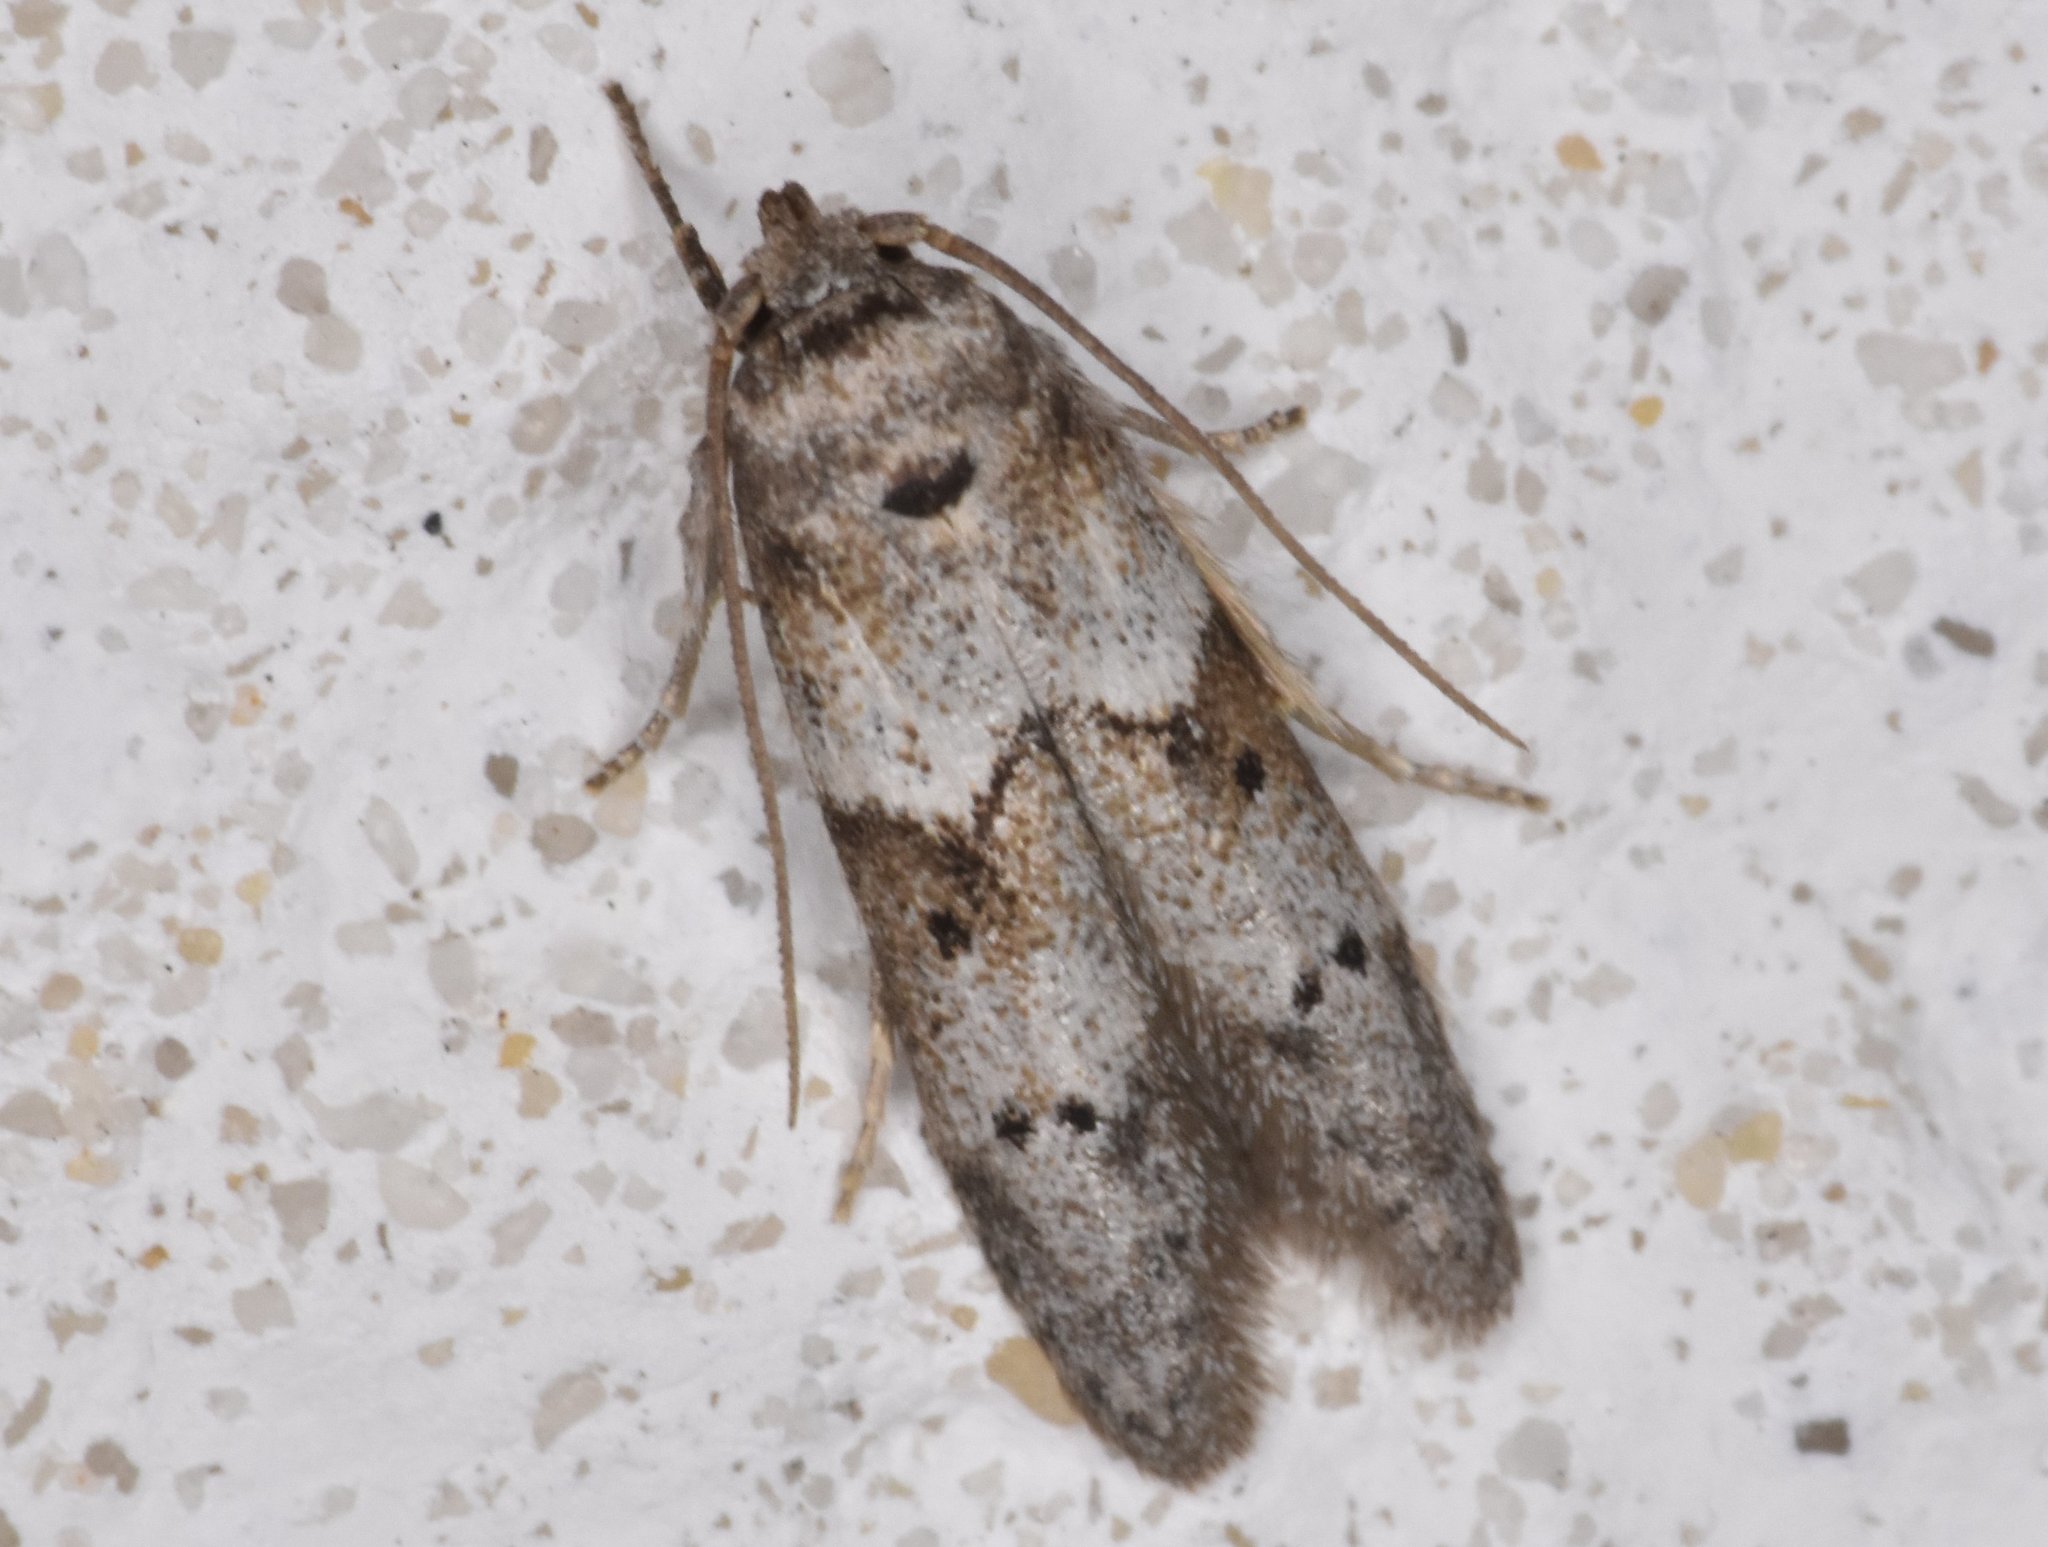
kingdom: Animalia
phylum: Arthropoda
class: Insecta
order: Lepidoptera
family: Blastobasidae
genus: Blastobasis
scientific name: Blastobasis glandulella
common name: Acorn moth
